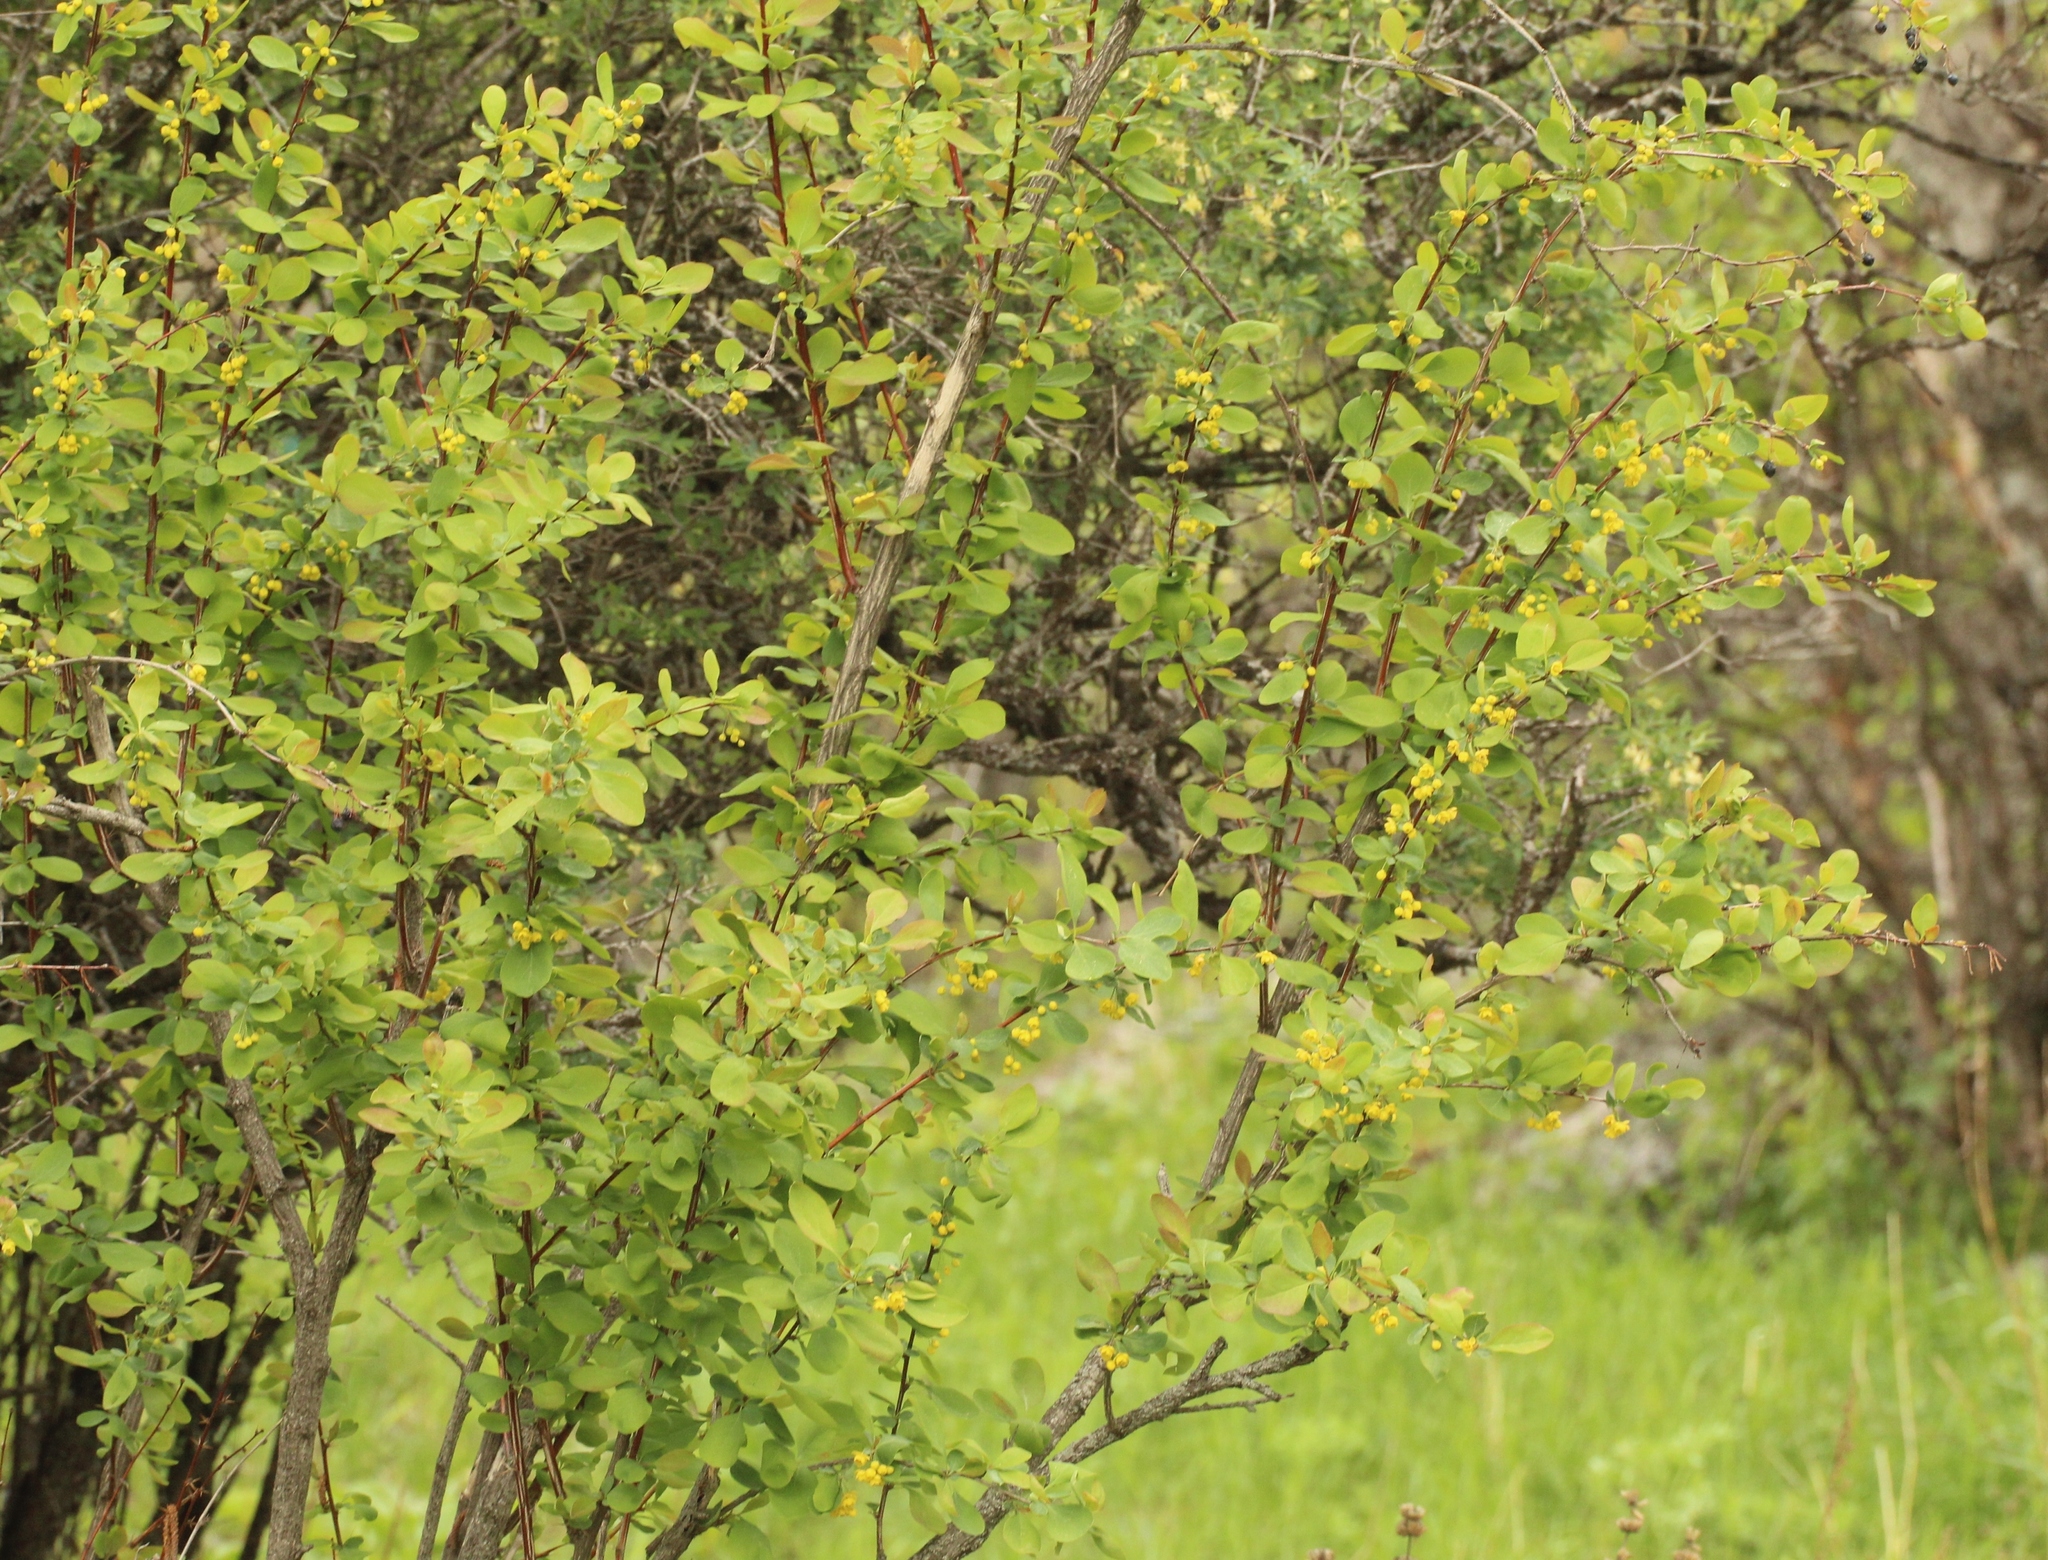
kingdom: Plantae
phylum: Tracheophyta
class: Magnoliopsida
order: Ranunculales
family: Berberidaceae
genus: Berberis
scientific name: Berberis heteropoda
